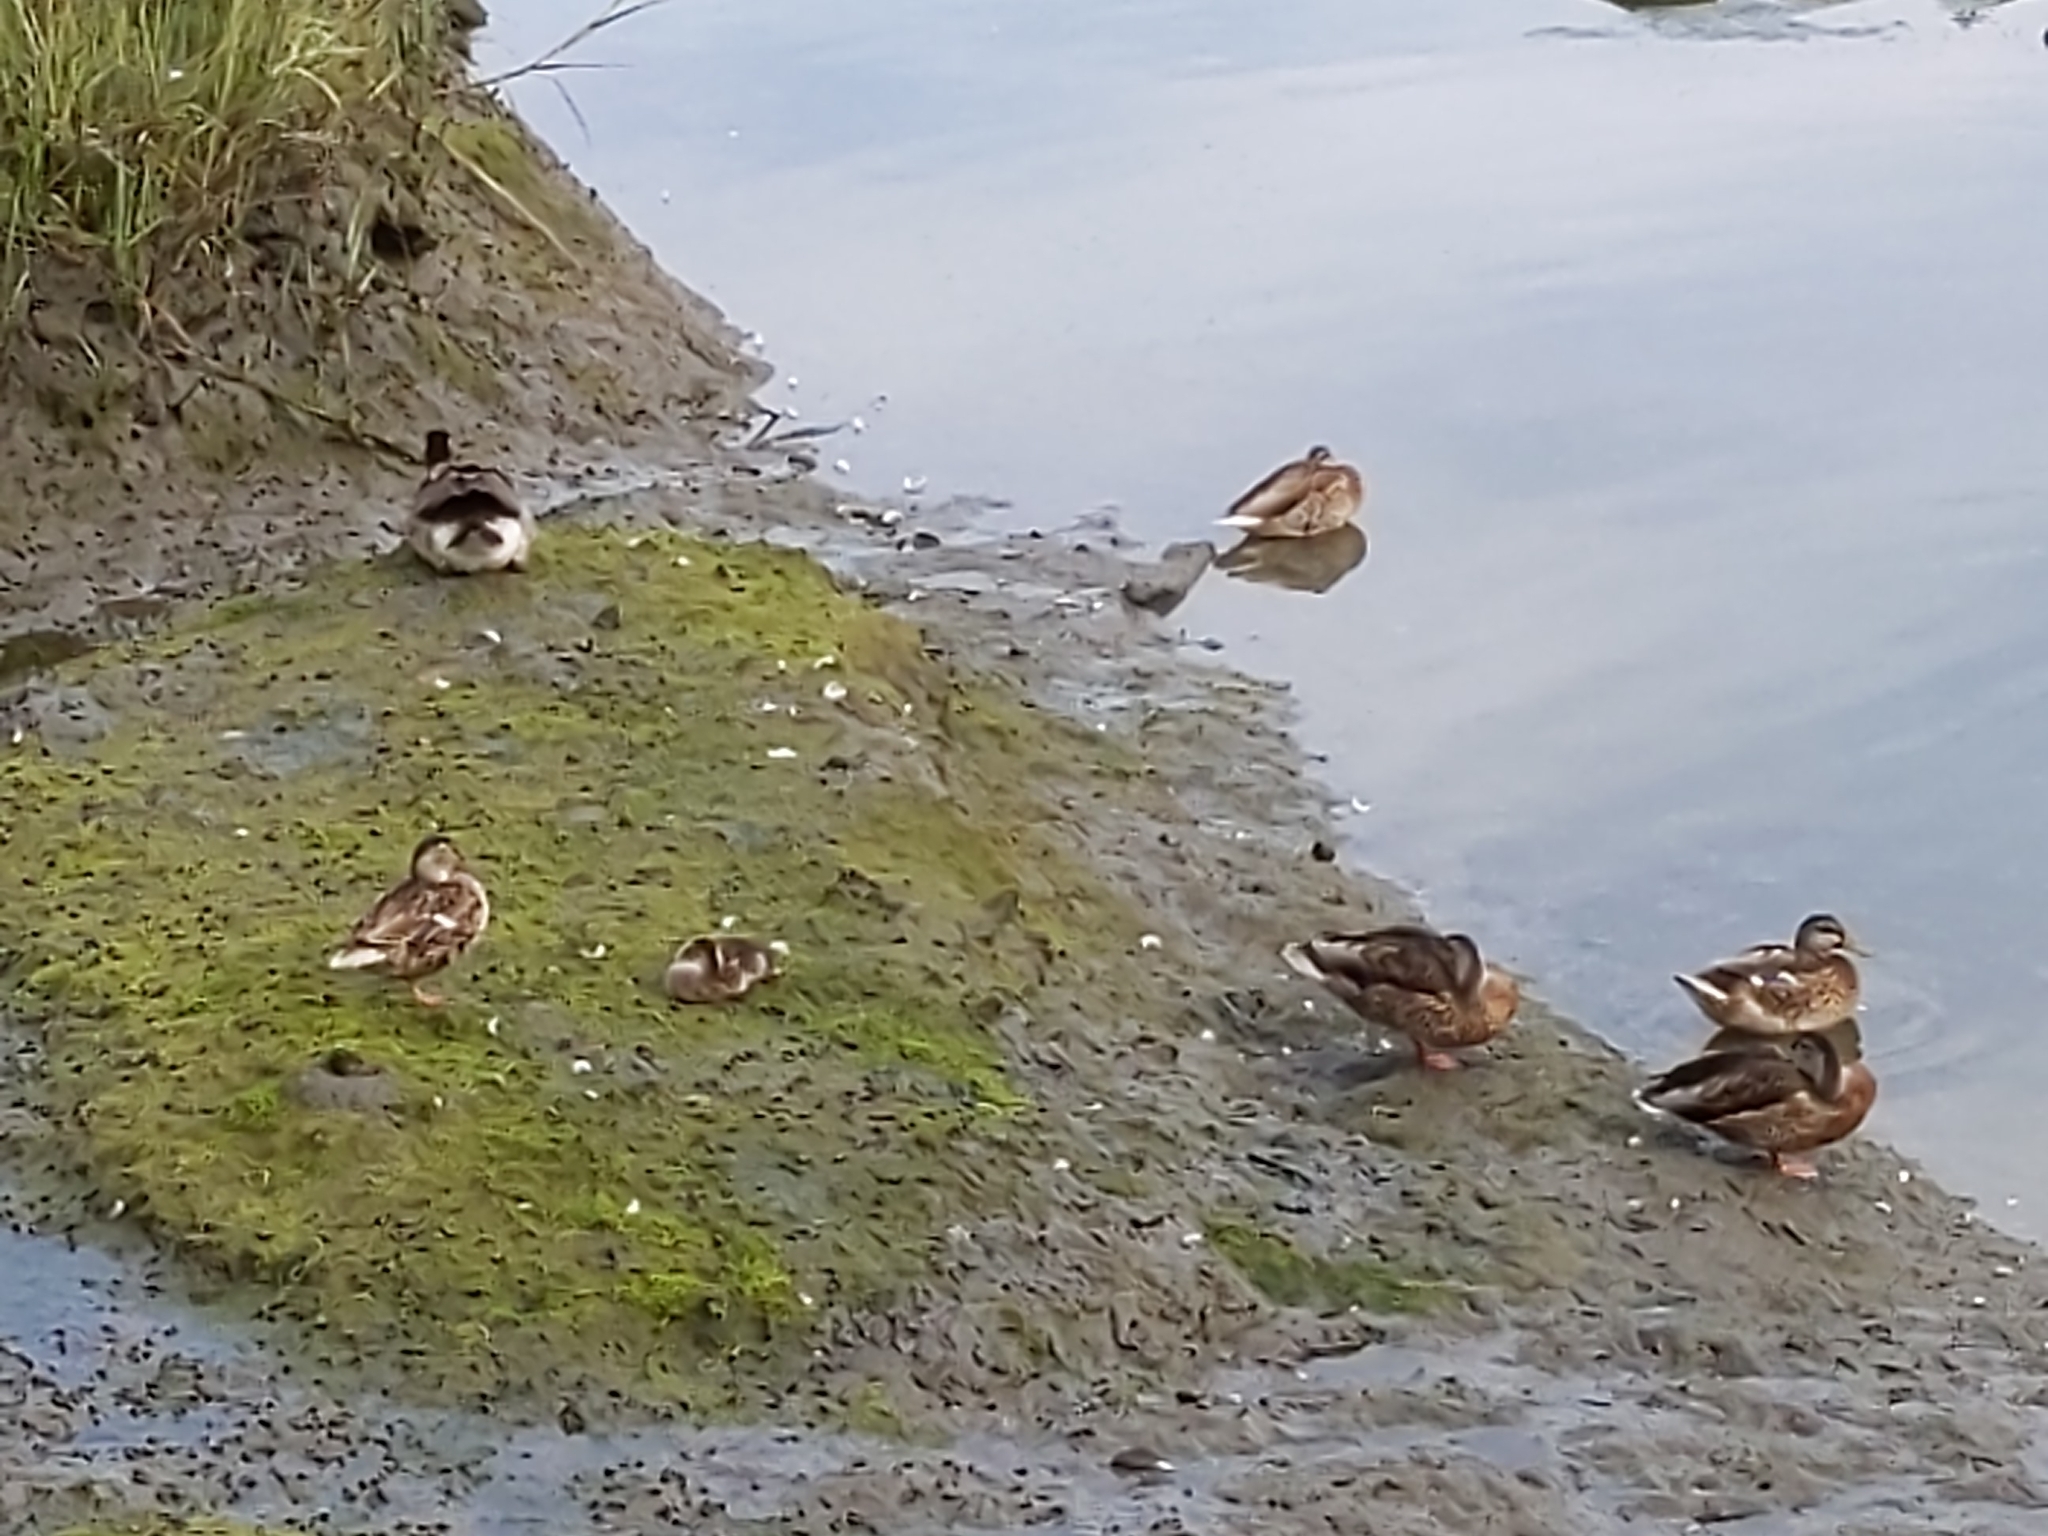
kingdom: Animalia
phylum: Chordata
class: Aves
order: Anseriformes
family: Anatidae
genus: Anas
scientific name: Anas platyrhynchos
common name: Mallard
